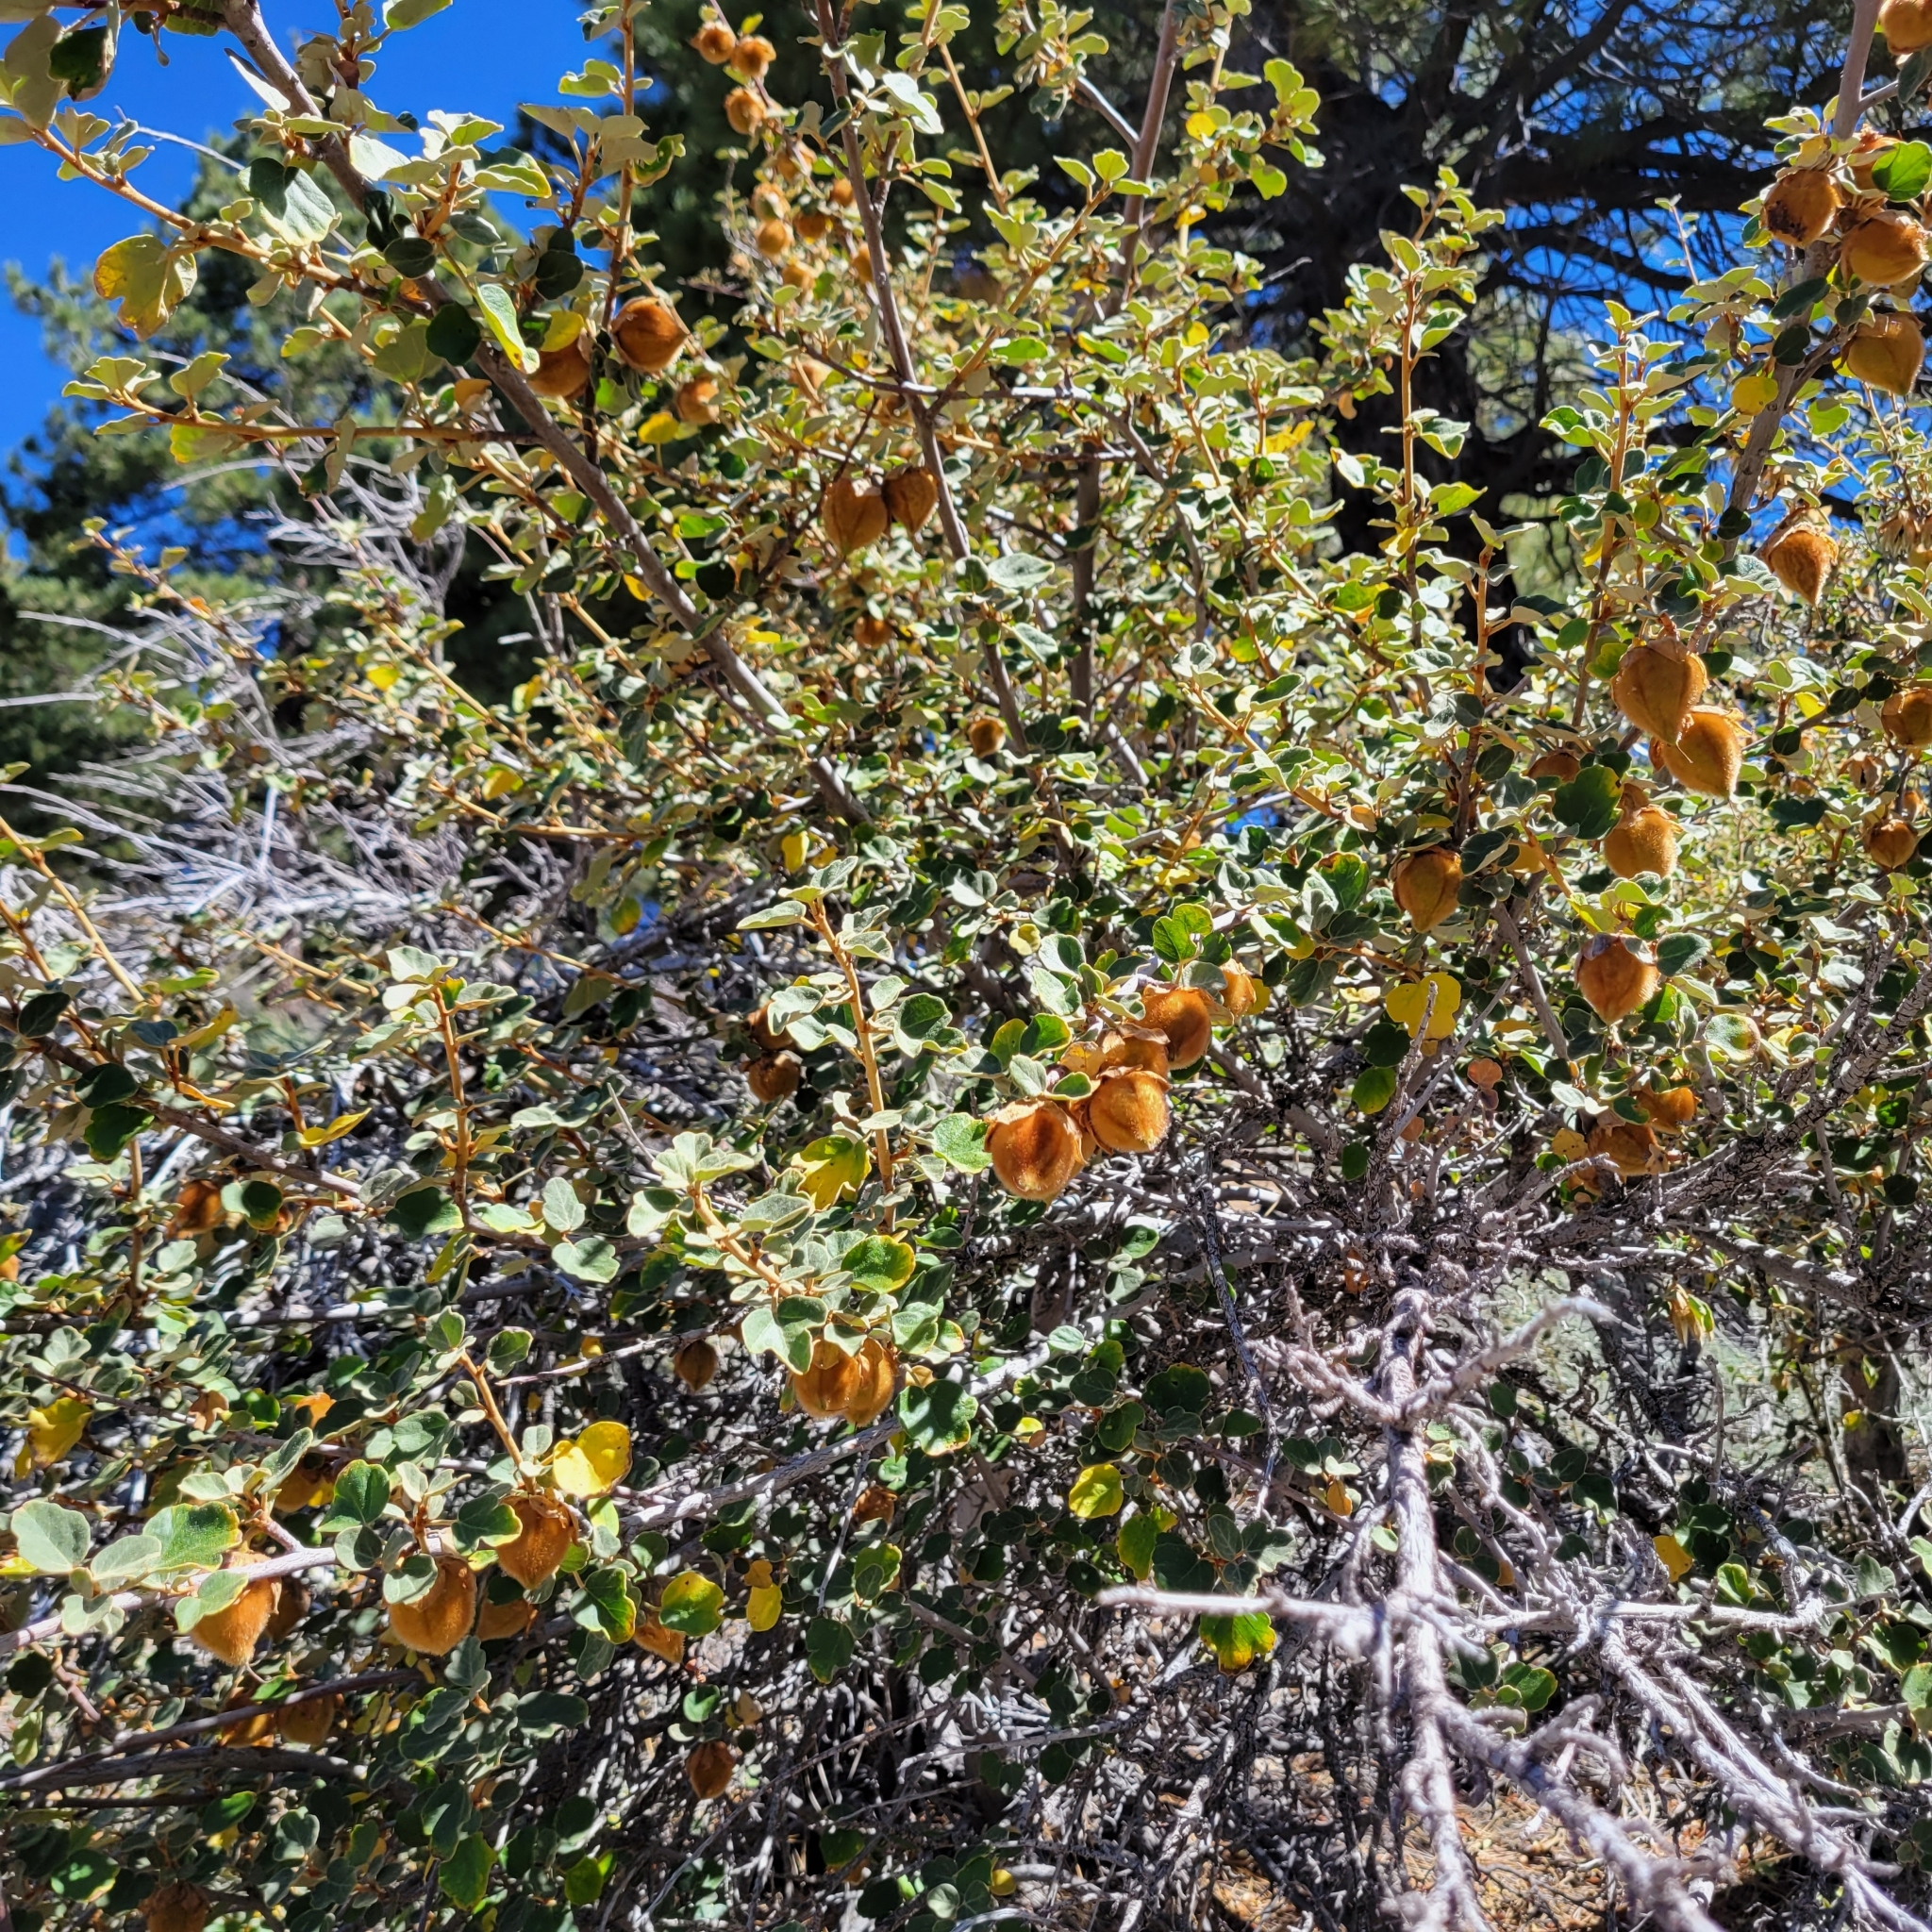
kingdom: Plantae
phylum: Tracheophyta
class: Magnoliopsida
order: Malvales
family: Malvaceae
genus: Fremontodendron
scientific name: Fremontodendron californicum
